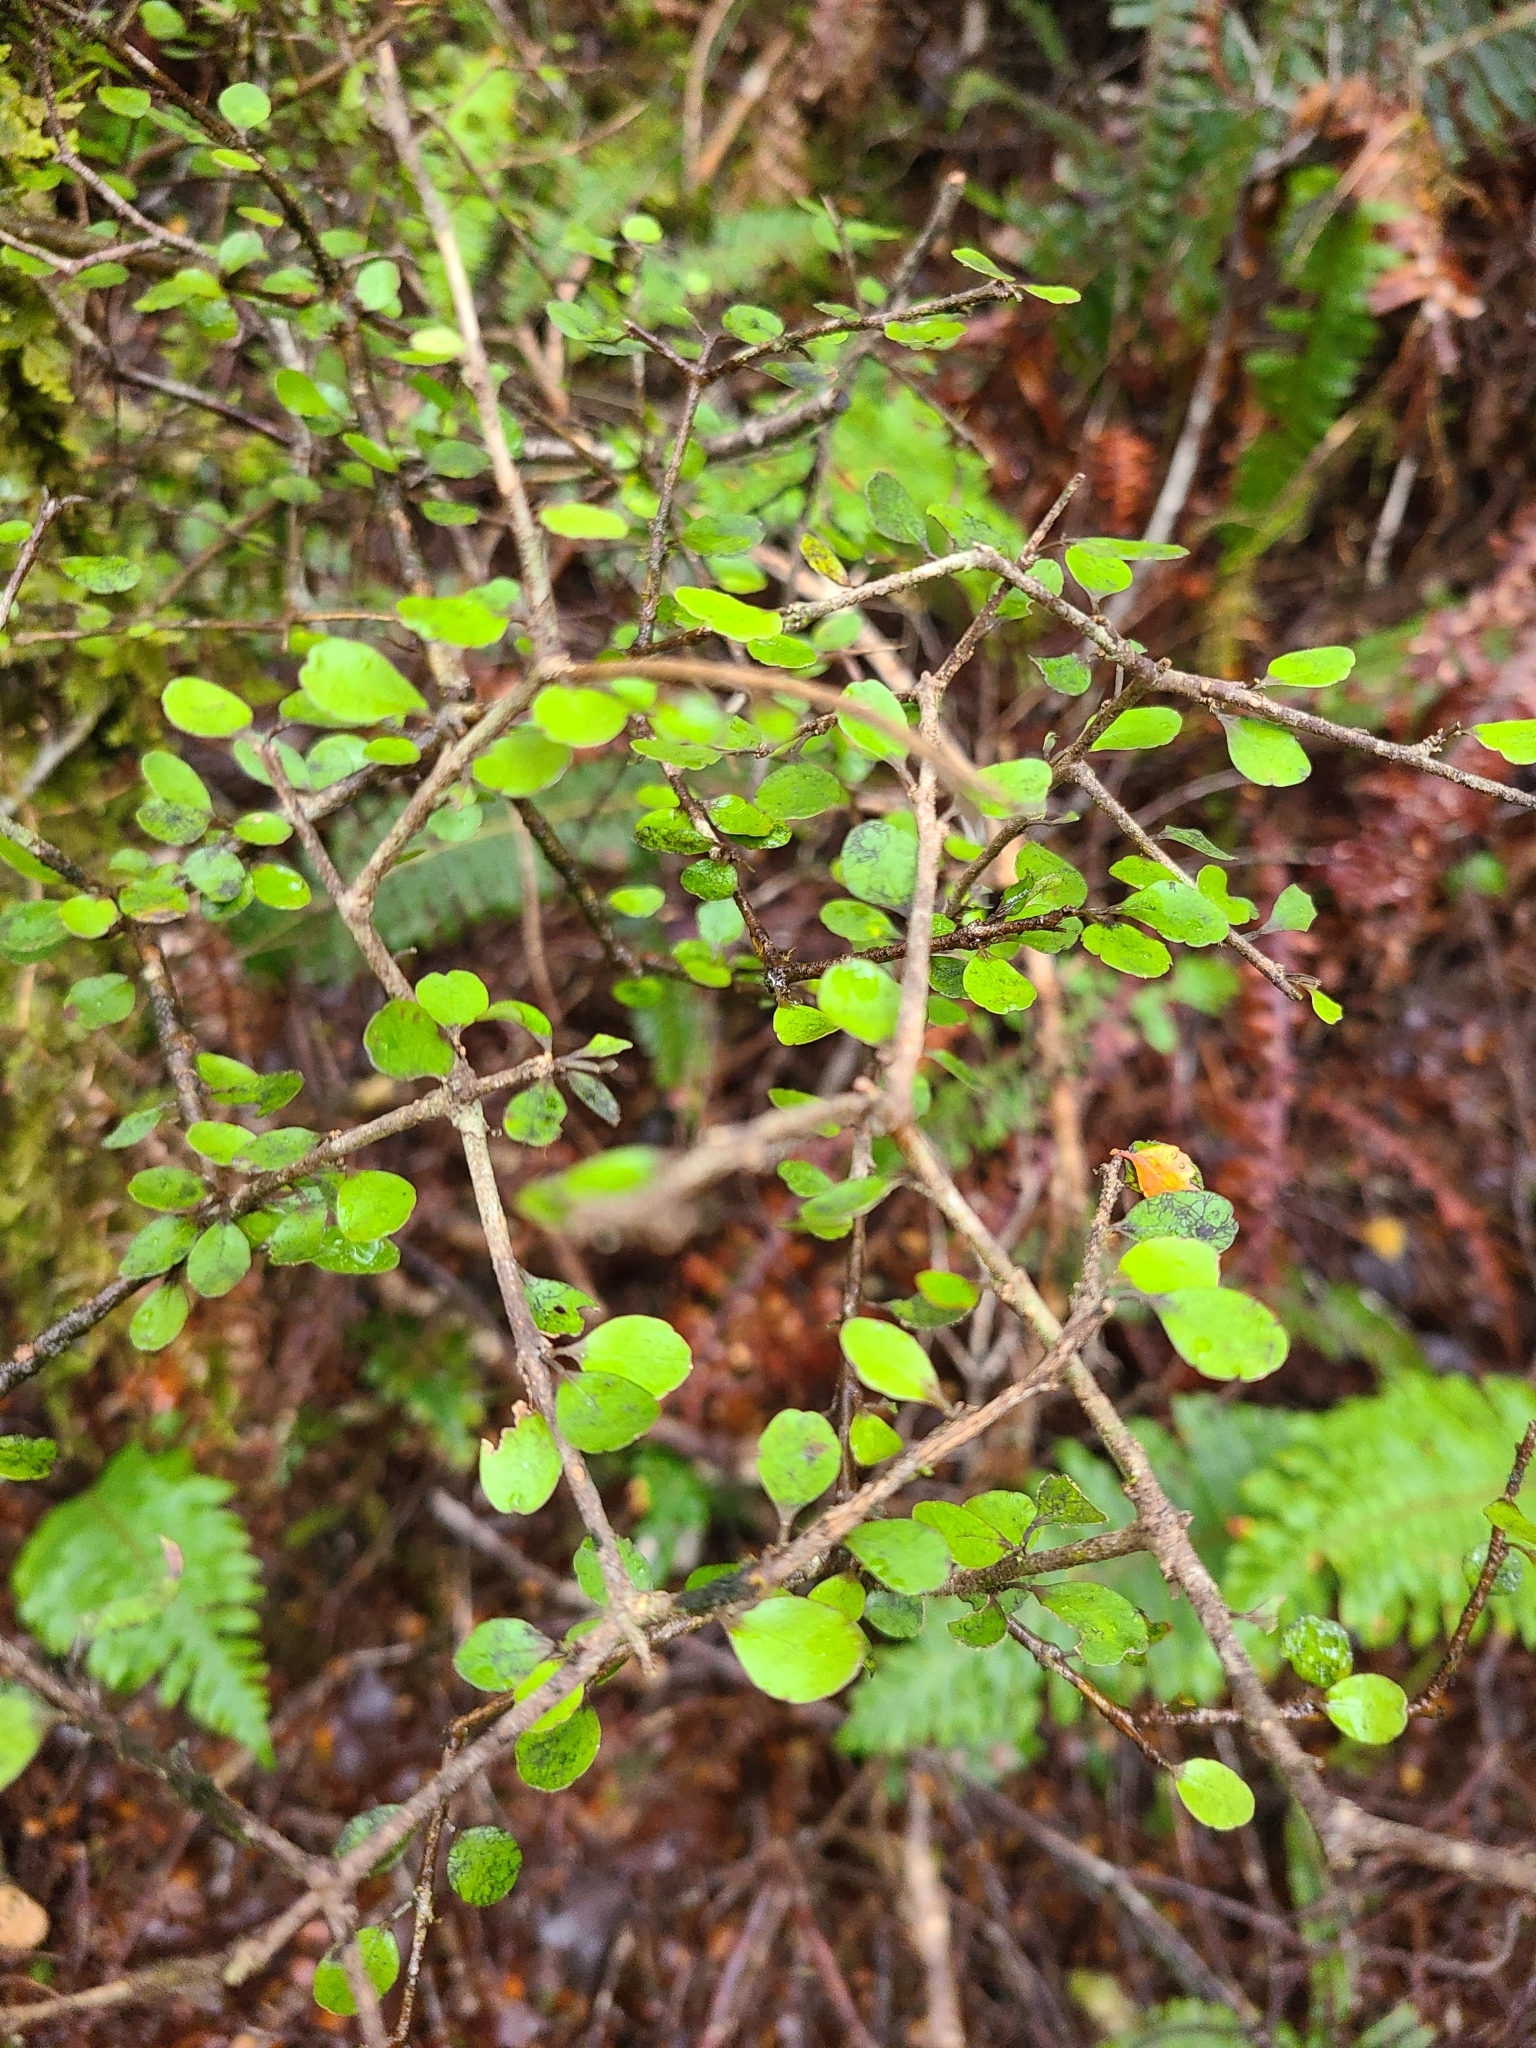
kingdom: Plantae
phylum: Tracheophyta
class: Magnoliopsida
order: Apiales
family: Araliaceae
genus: Raukaua
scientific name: Raukaua anomalus
